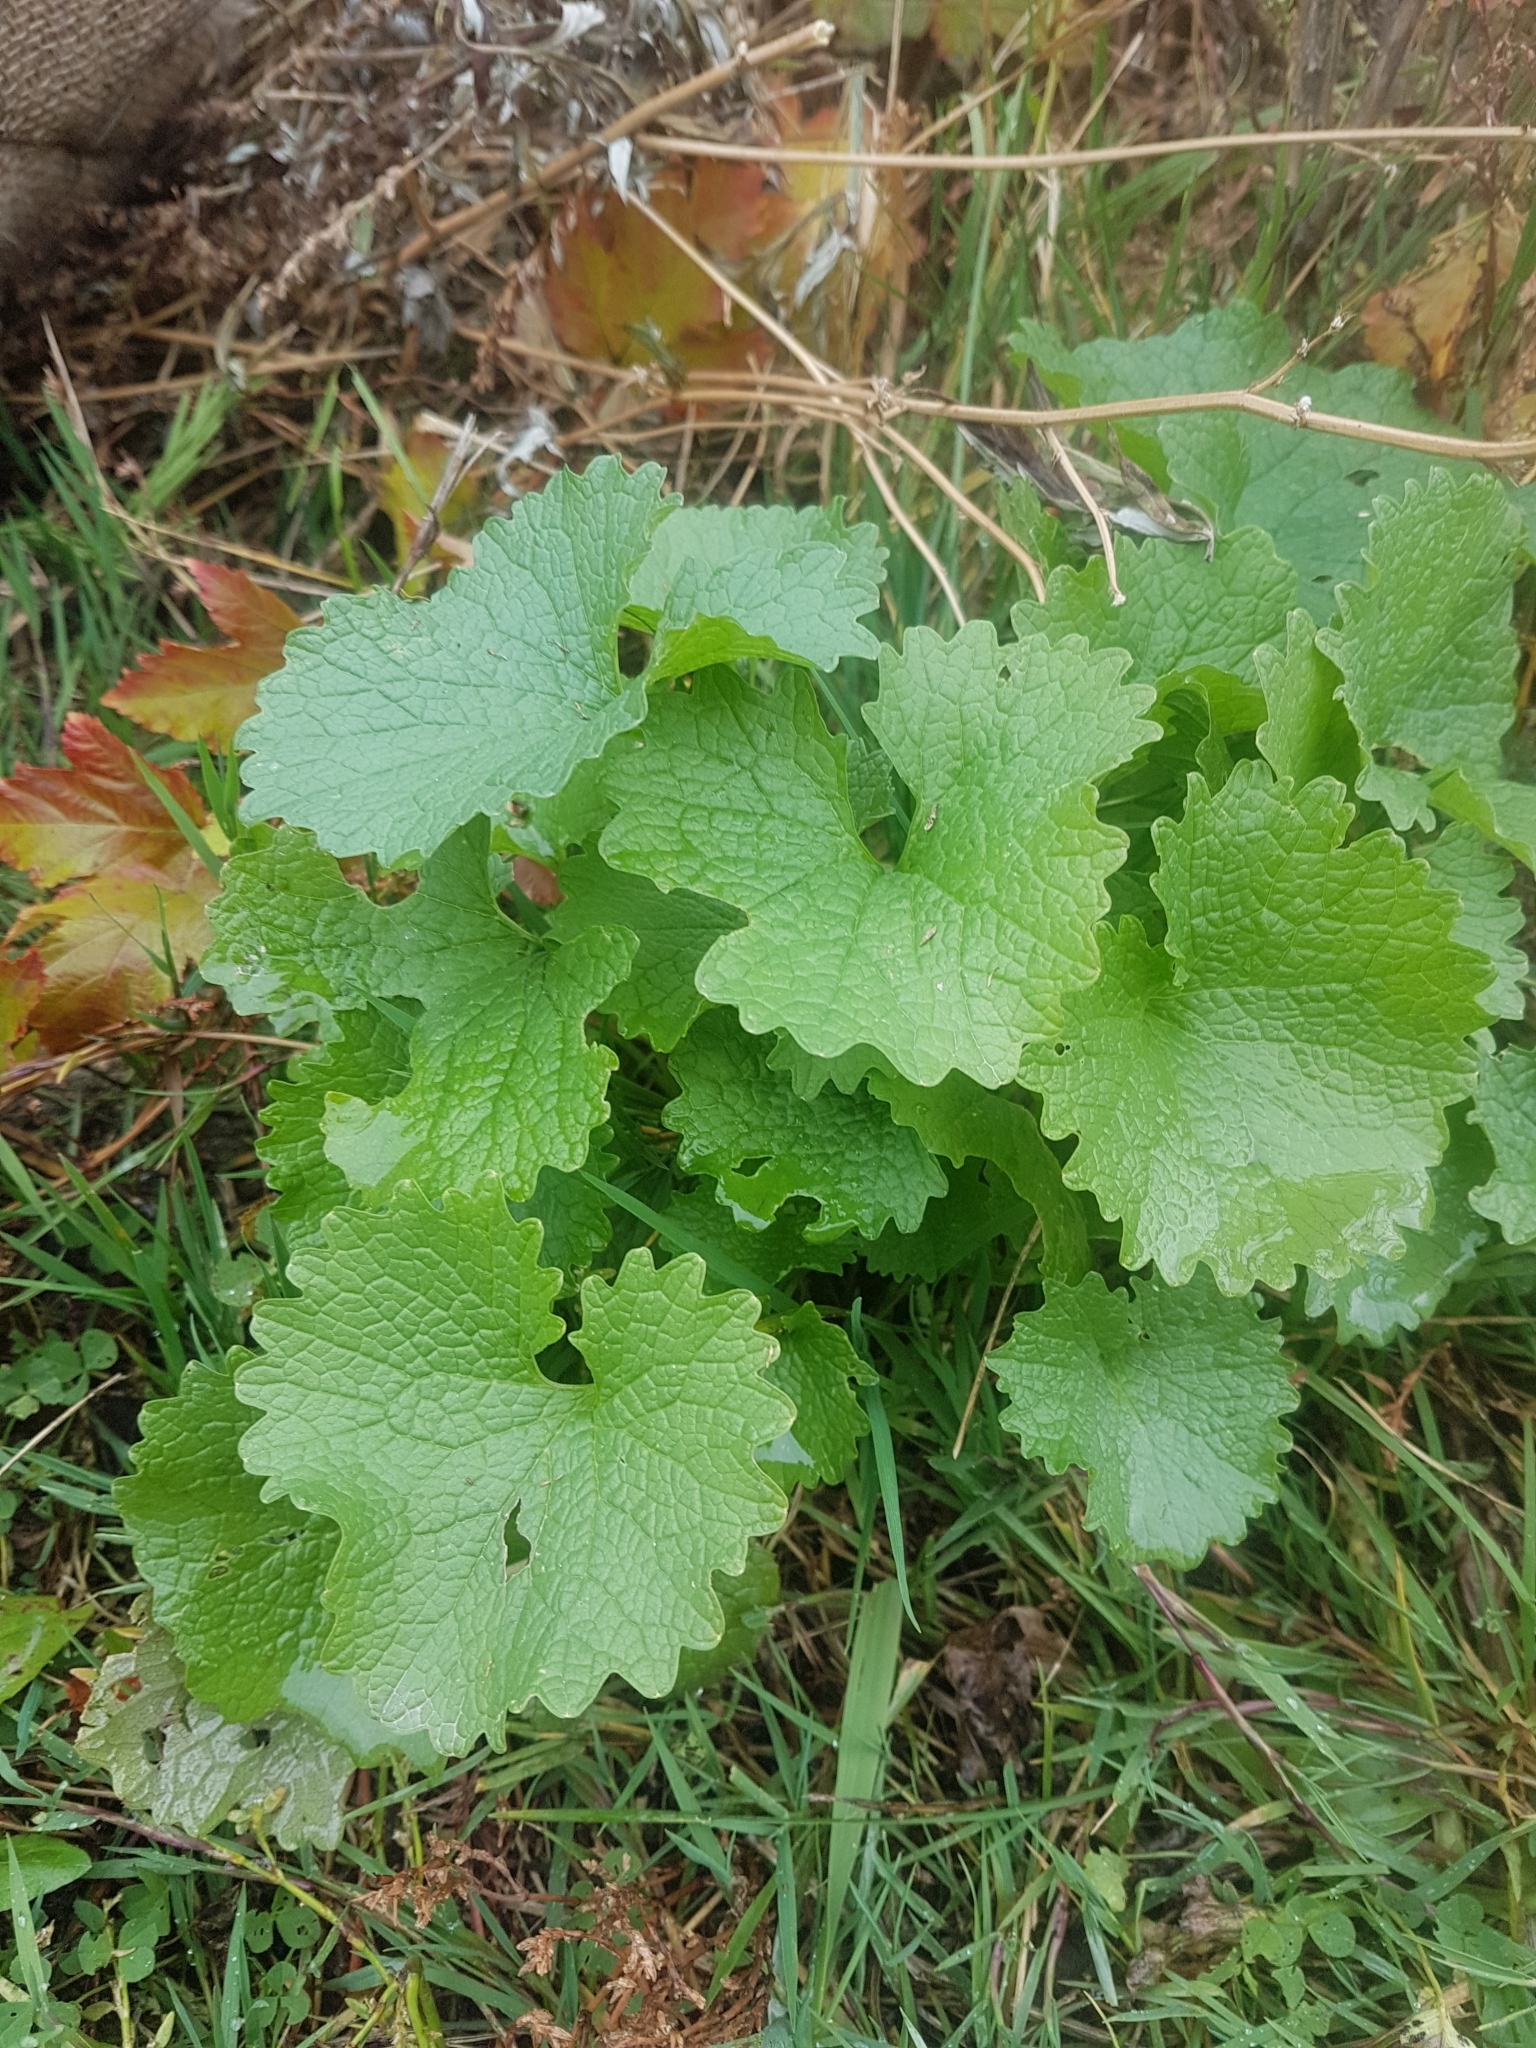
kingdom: Plantae
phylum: Tracheophyta
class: Magnoliopsida
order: Brassicales
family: Brassicaceae
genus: Alliaria
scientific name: Alliaria petiolata
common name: Garlic mustard
